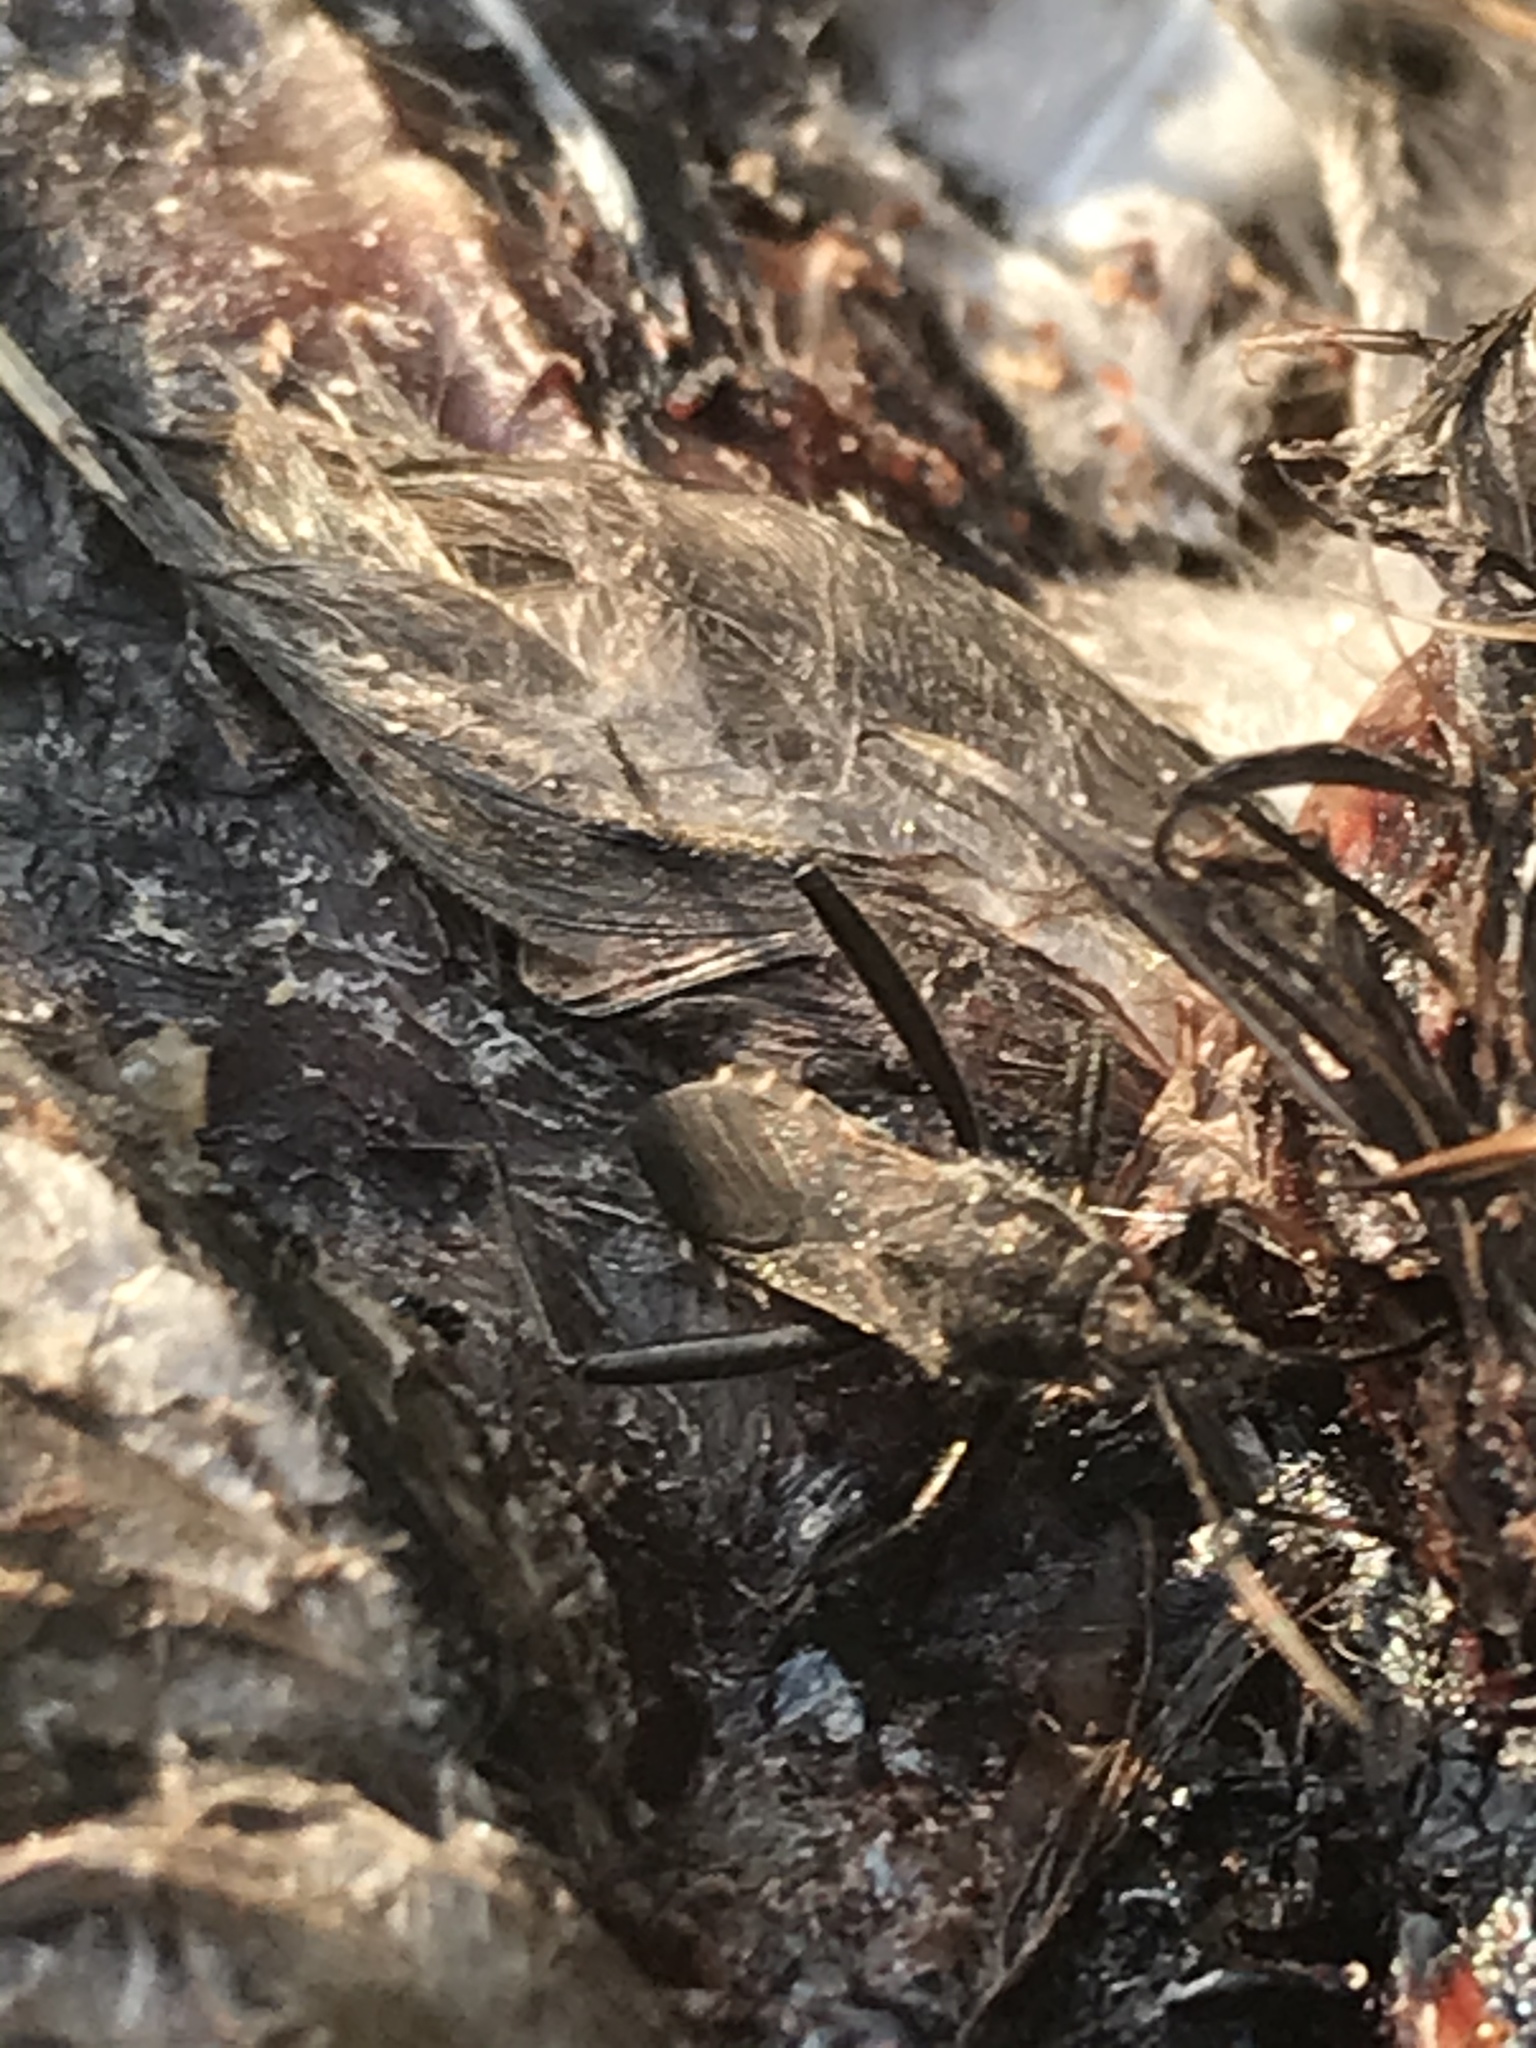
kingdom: Animalia
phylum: Arthropoda
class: Insecta
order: Hemiptera
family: Alydidae
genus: Alydus
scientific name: Alydus pilosulus
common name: Broad-headed bug
